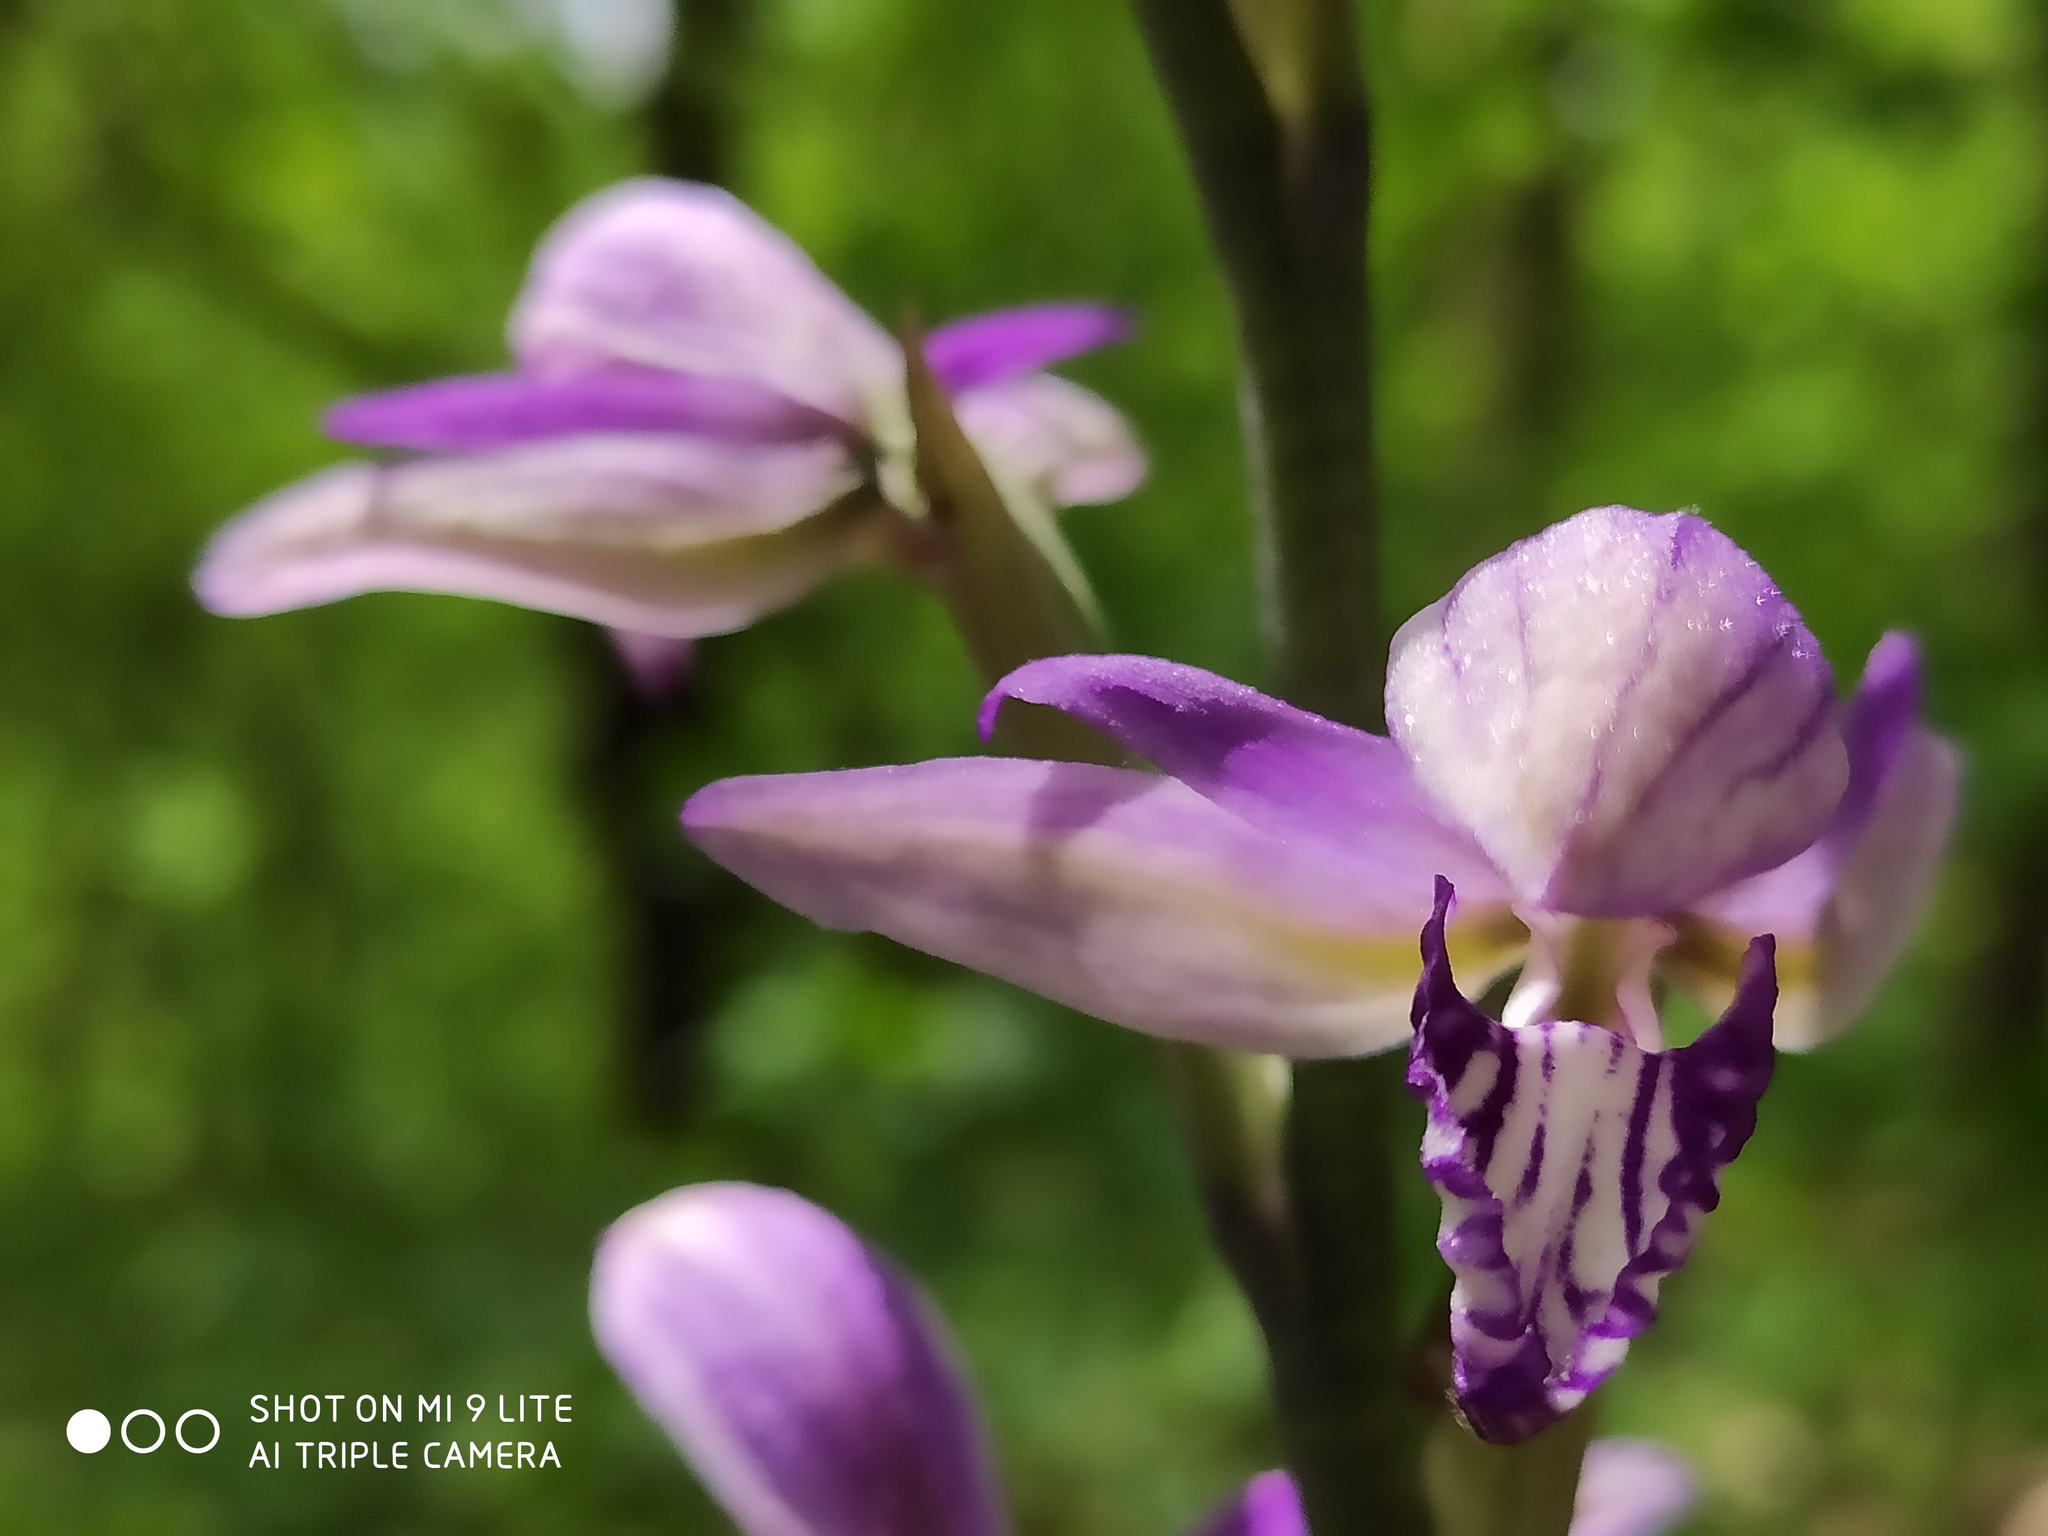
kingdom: Plantae
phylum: Tracheophyta
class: Liliopsida
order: Asparagales
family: Orchidaceae
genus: Limodorum
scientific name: Limodorum abortivum
